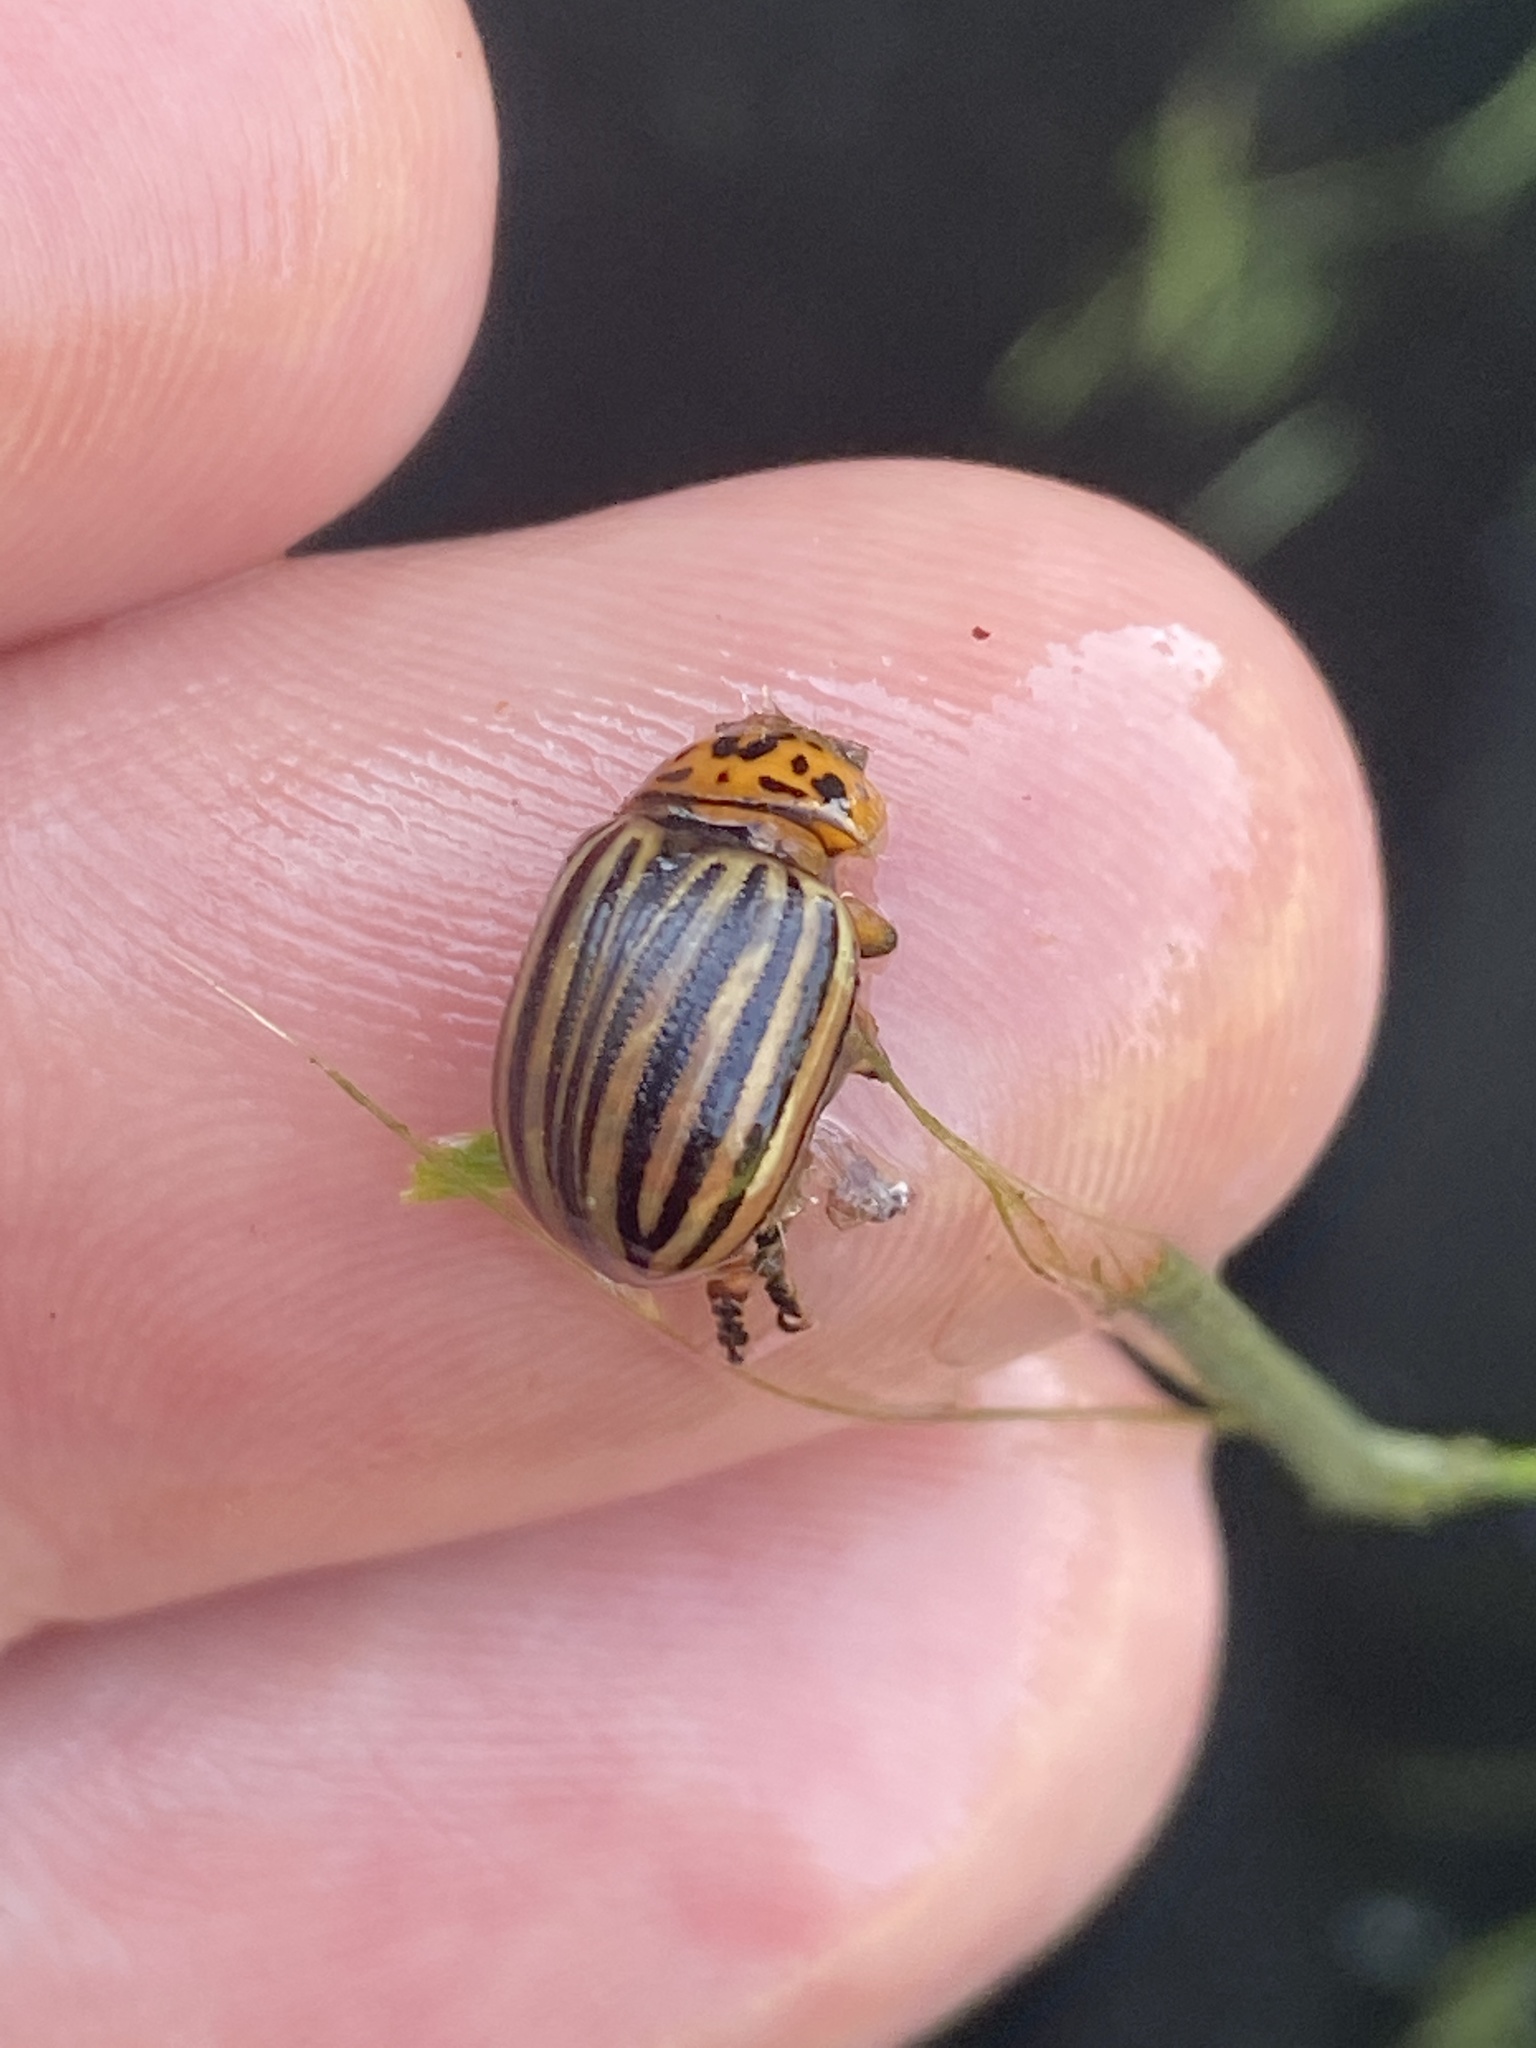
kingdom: Animalia
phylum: Arthropoda
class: Insecta
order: Coleoptera
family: Chrysomelidae
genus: Leptinotarsa
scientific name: Leptinotarsa decemlineata
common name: Colorado potato beetle
